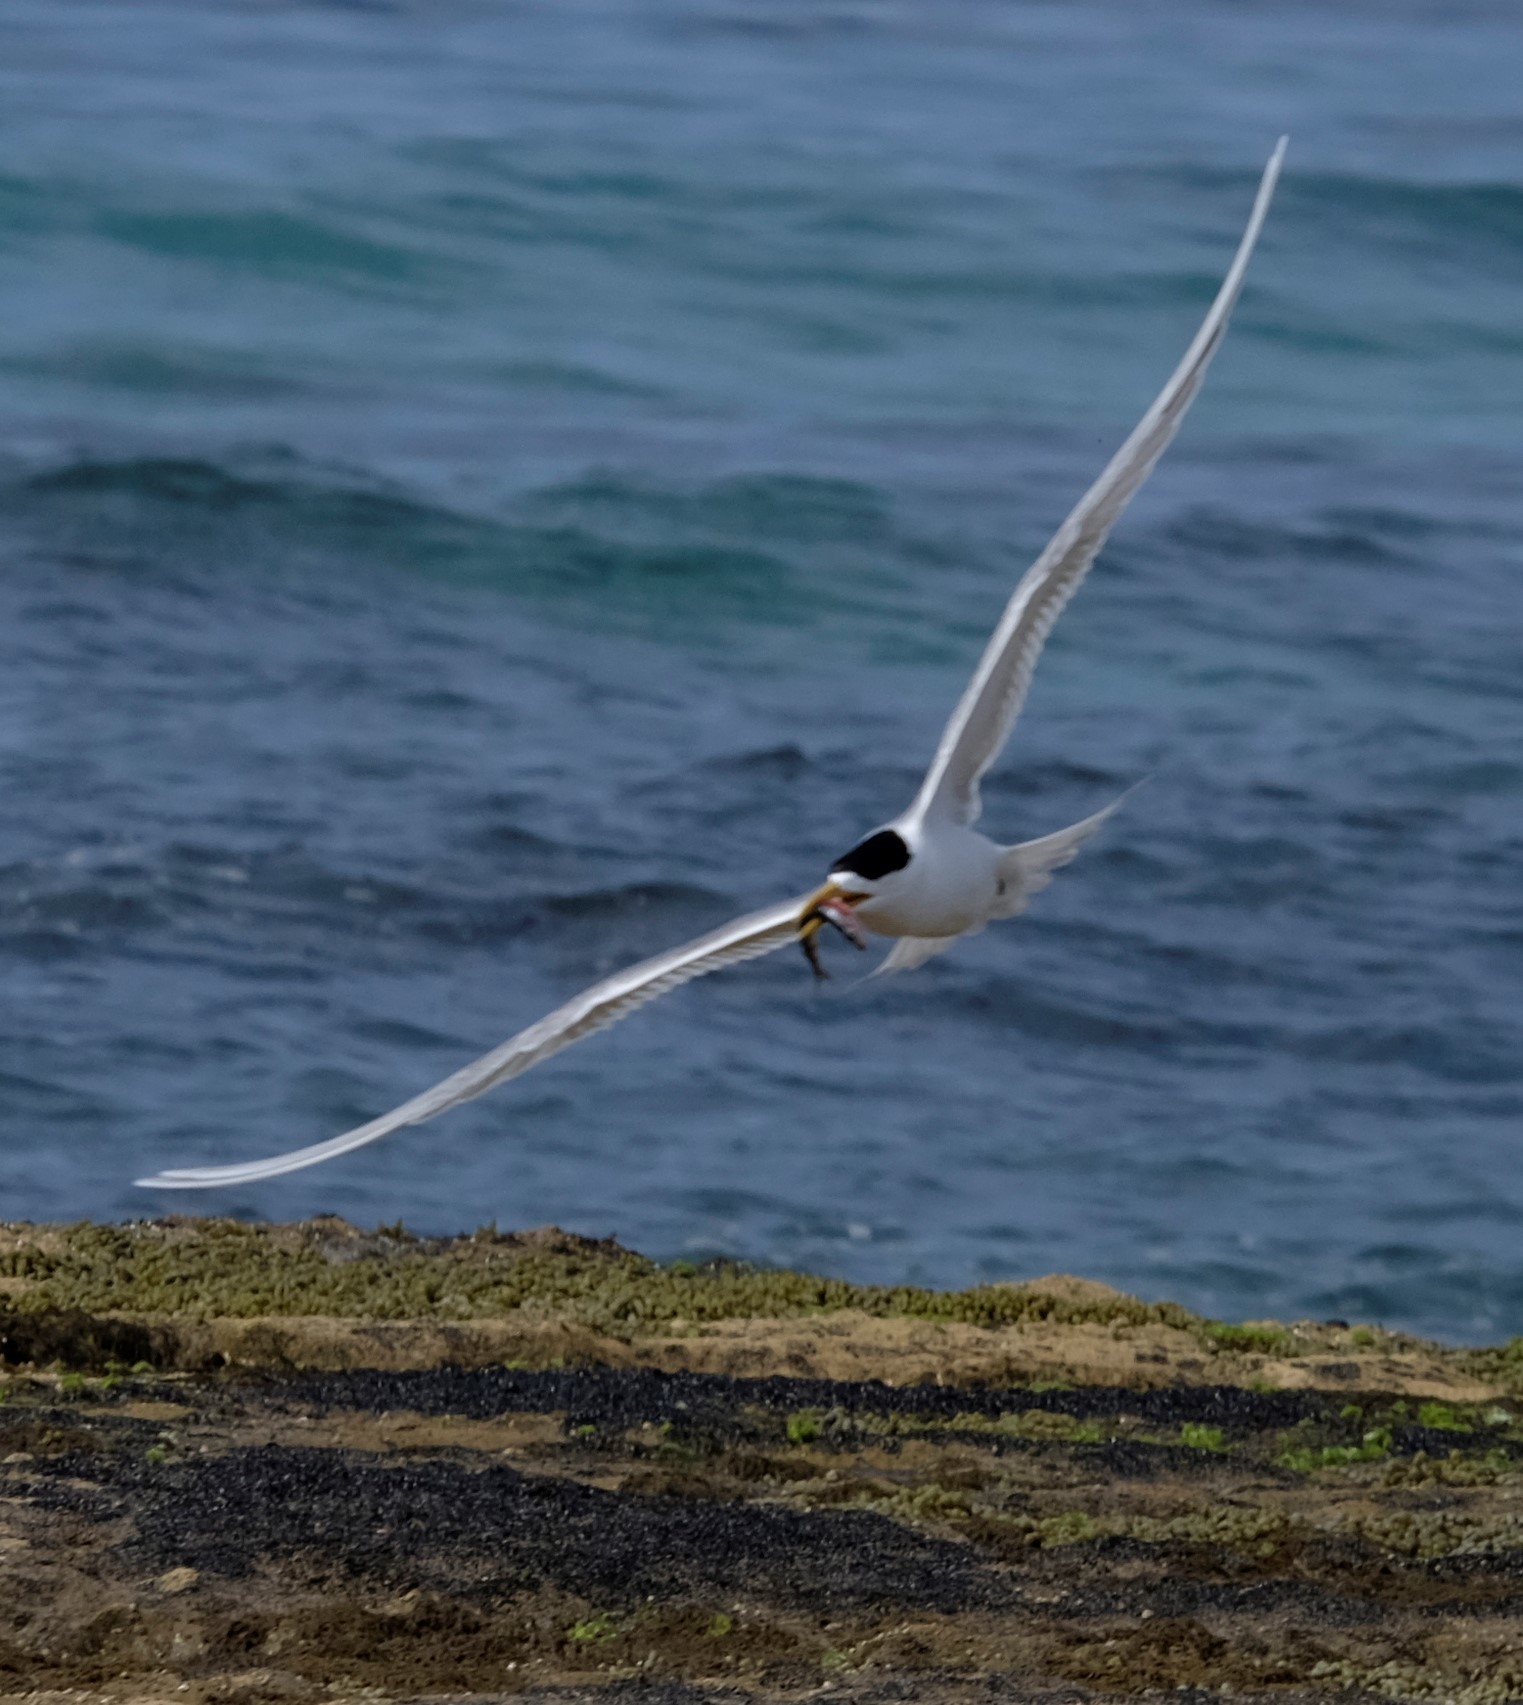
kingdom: Animalia
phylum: Chordata
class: Aves
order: Charadriiformes
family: Laridae
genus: Thalasseus
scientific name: Thalasseus bergii
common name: Greater crested tern
